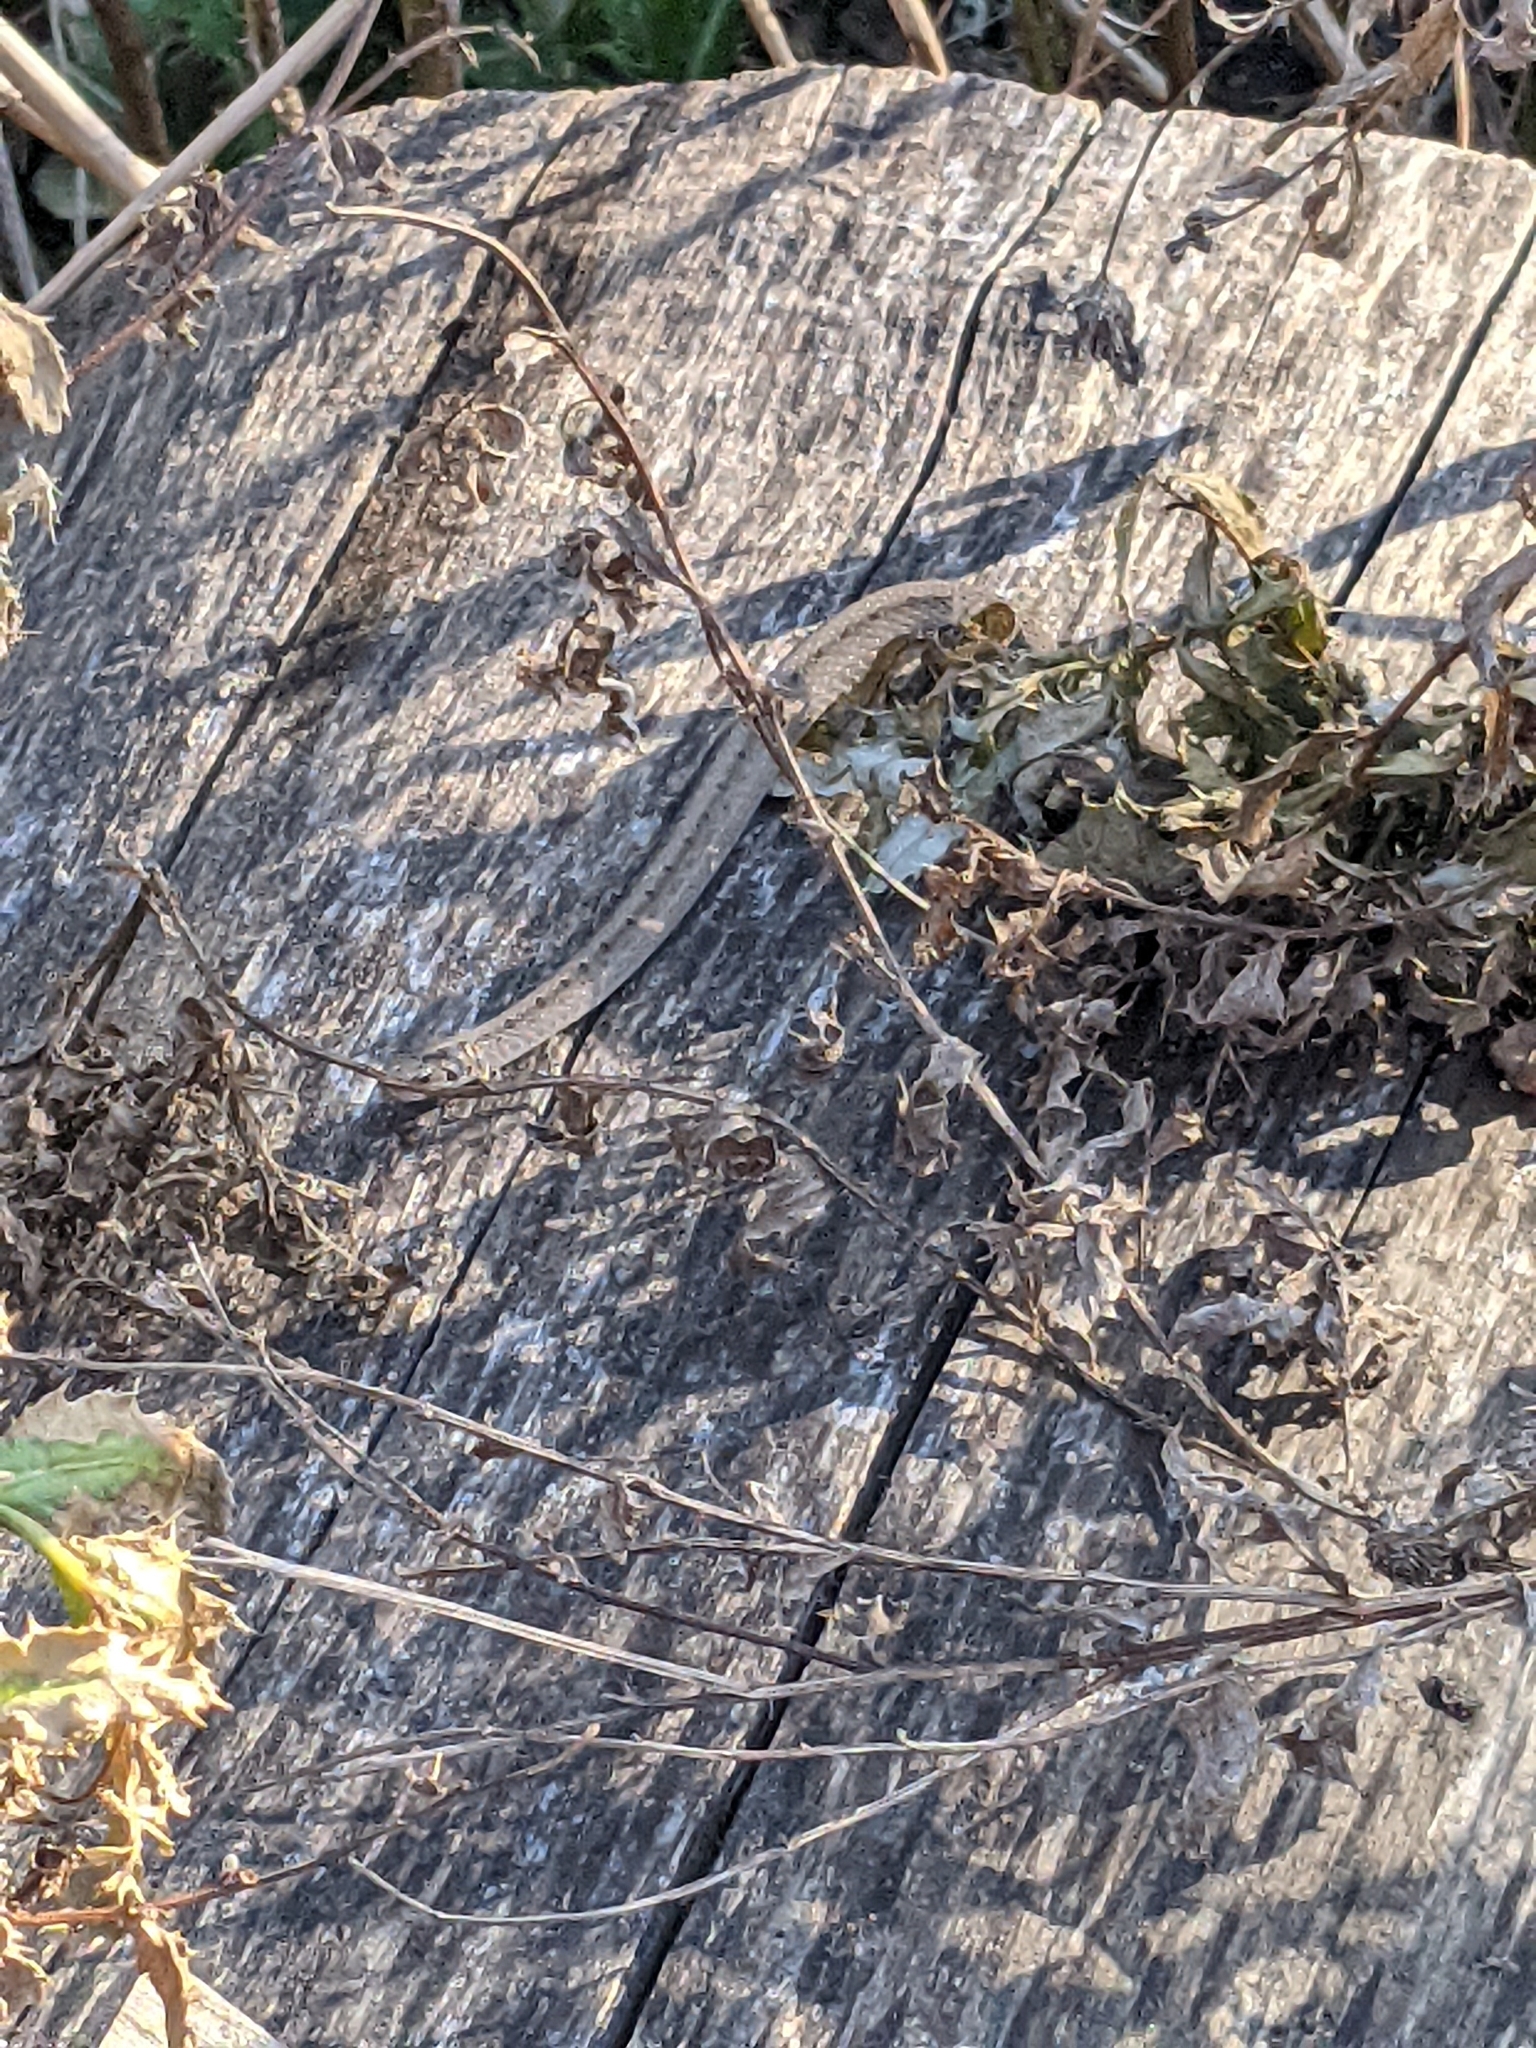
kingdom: Animalia
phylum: Chordata
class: Squamata
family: Colubridae
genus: Storeria
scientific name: Storeria dekayi
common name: (dekay’s) brown snake
